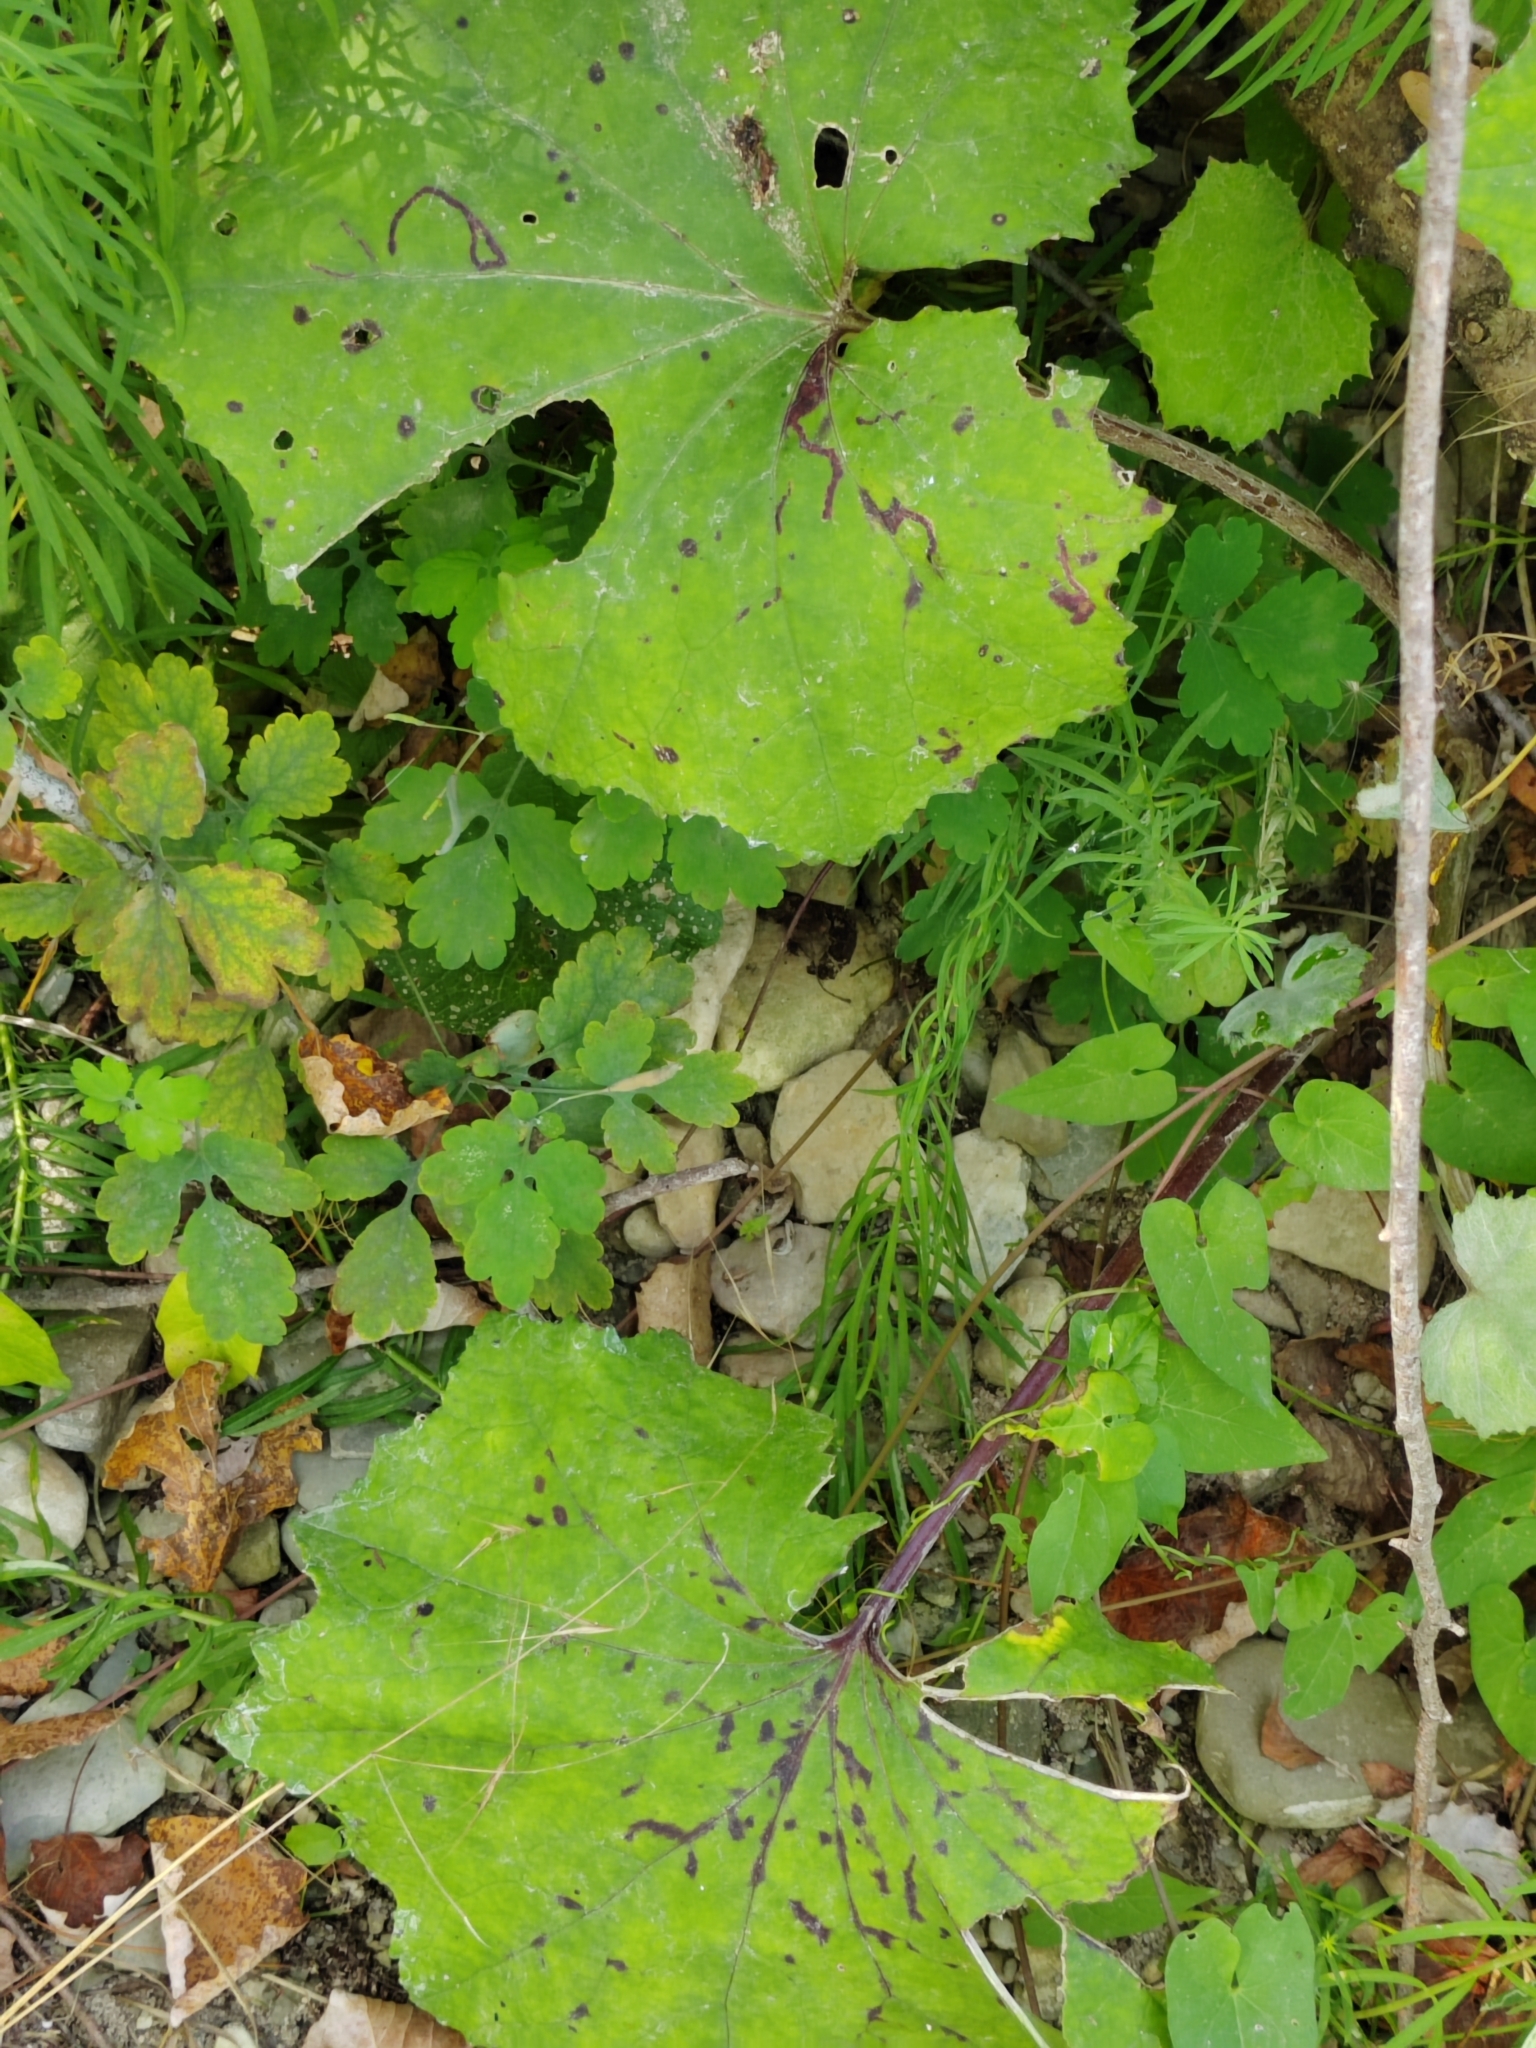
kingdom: Plantae
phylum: Tracheophyta
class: Magnoliopsida
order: Asterales
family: Asteraceae
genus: Tussilago
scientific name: Tussilago farfara
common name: Coltsfoot
